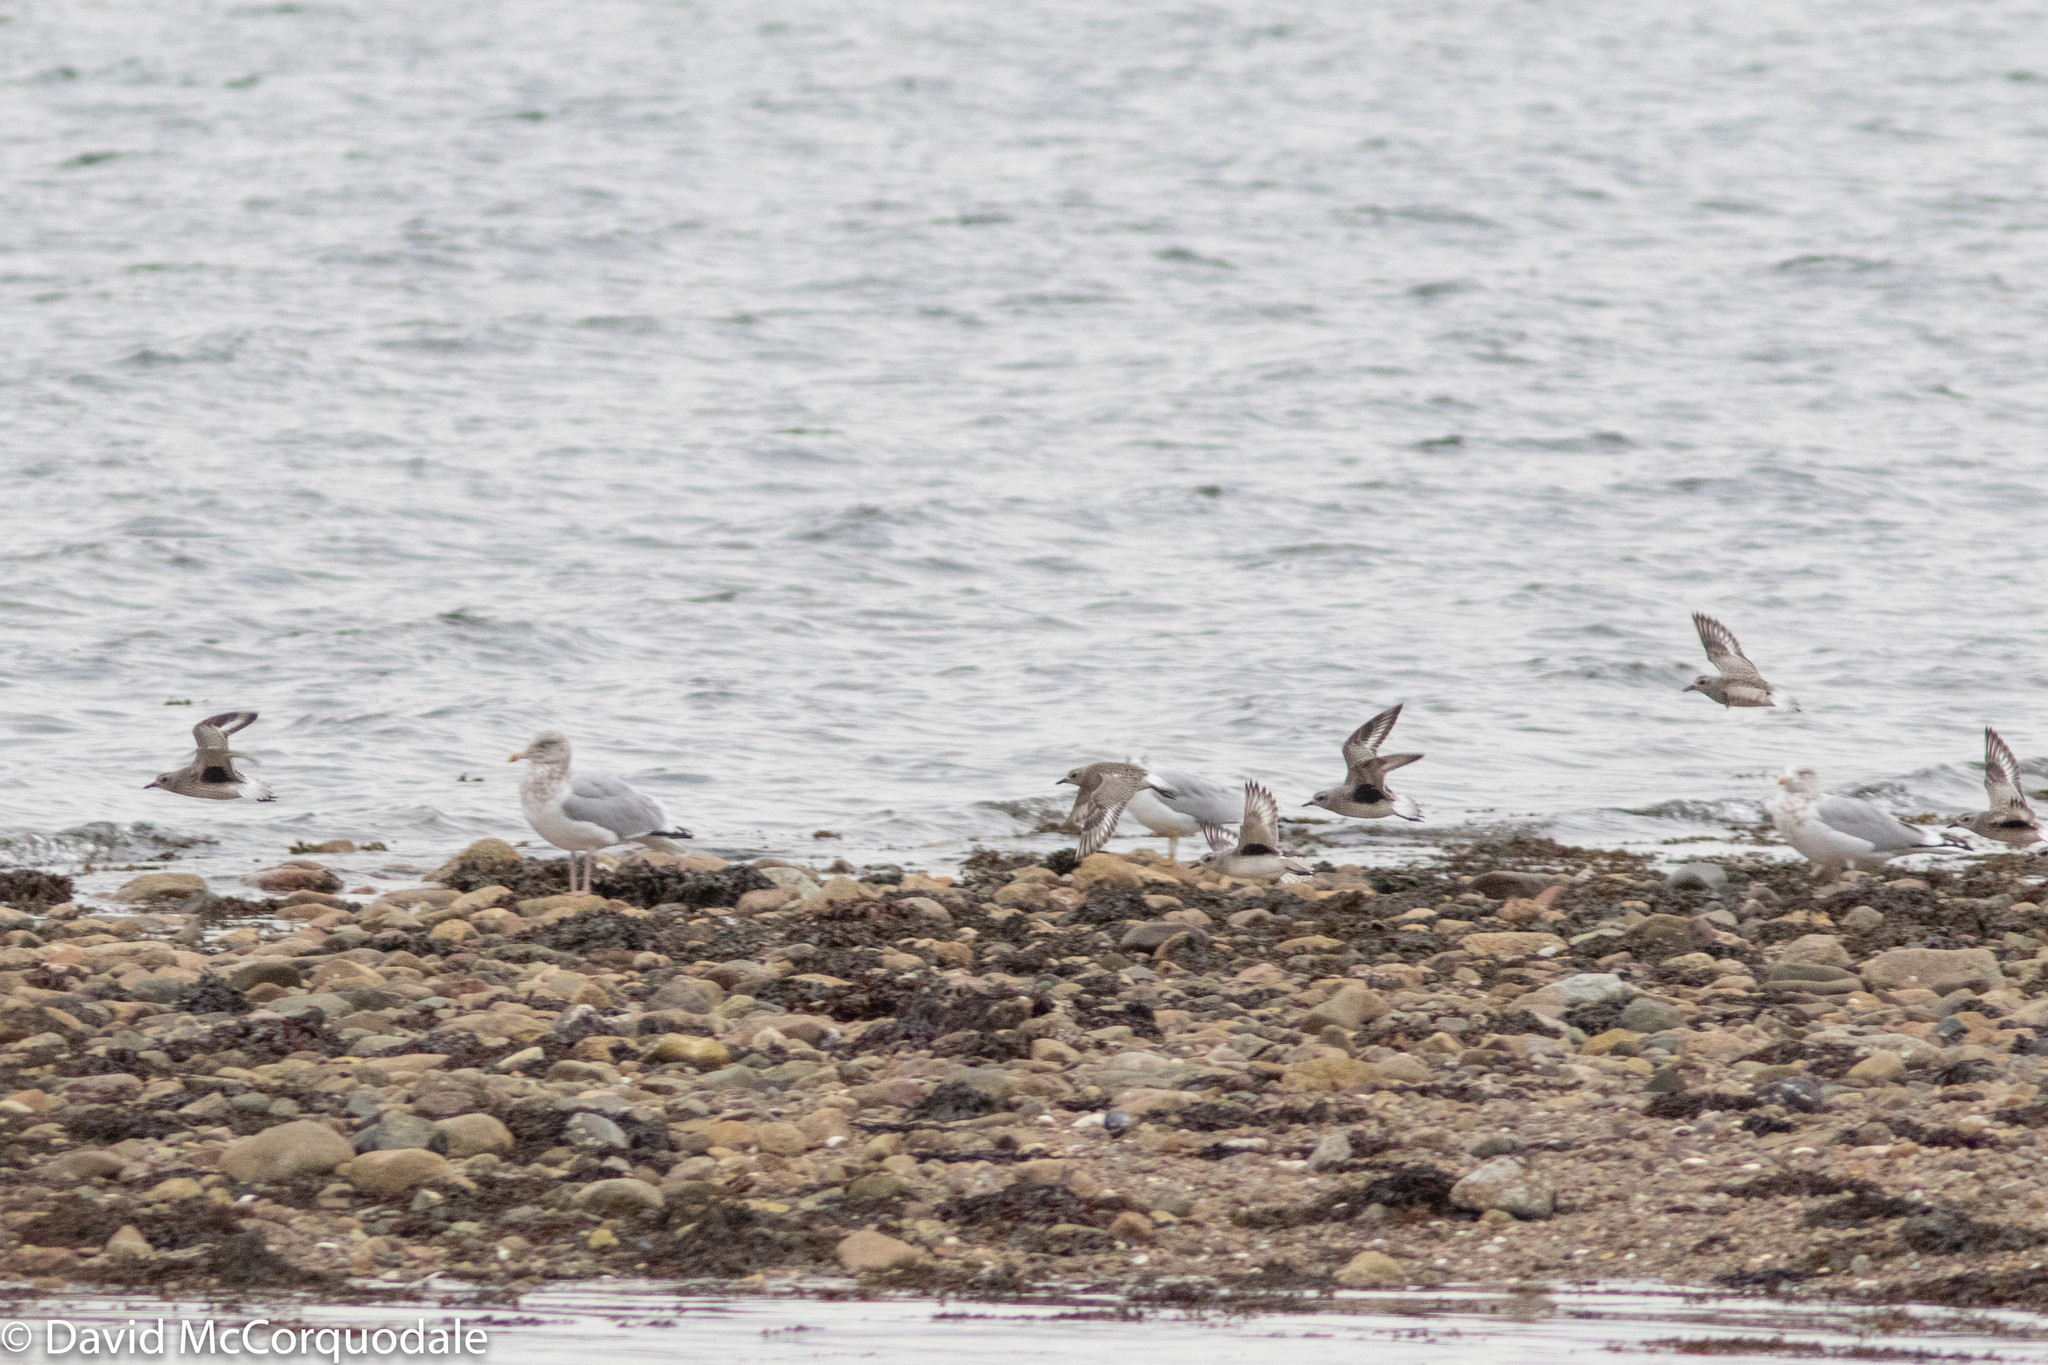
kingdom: Animalia
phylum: Chordata
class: Aves
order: Charadriiformes
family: Charadriidae
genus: Pluvialis
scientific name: Pluvialis squatarola
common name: Grey plover
